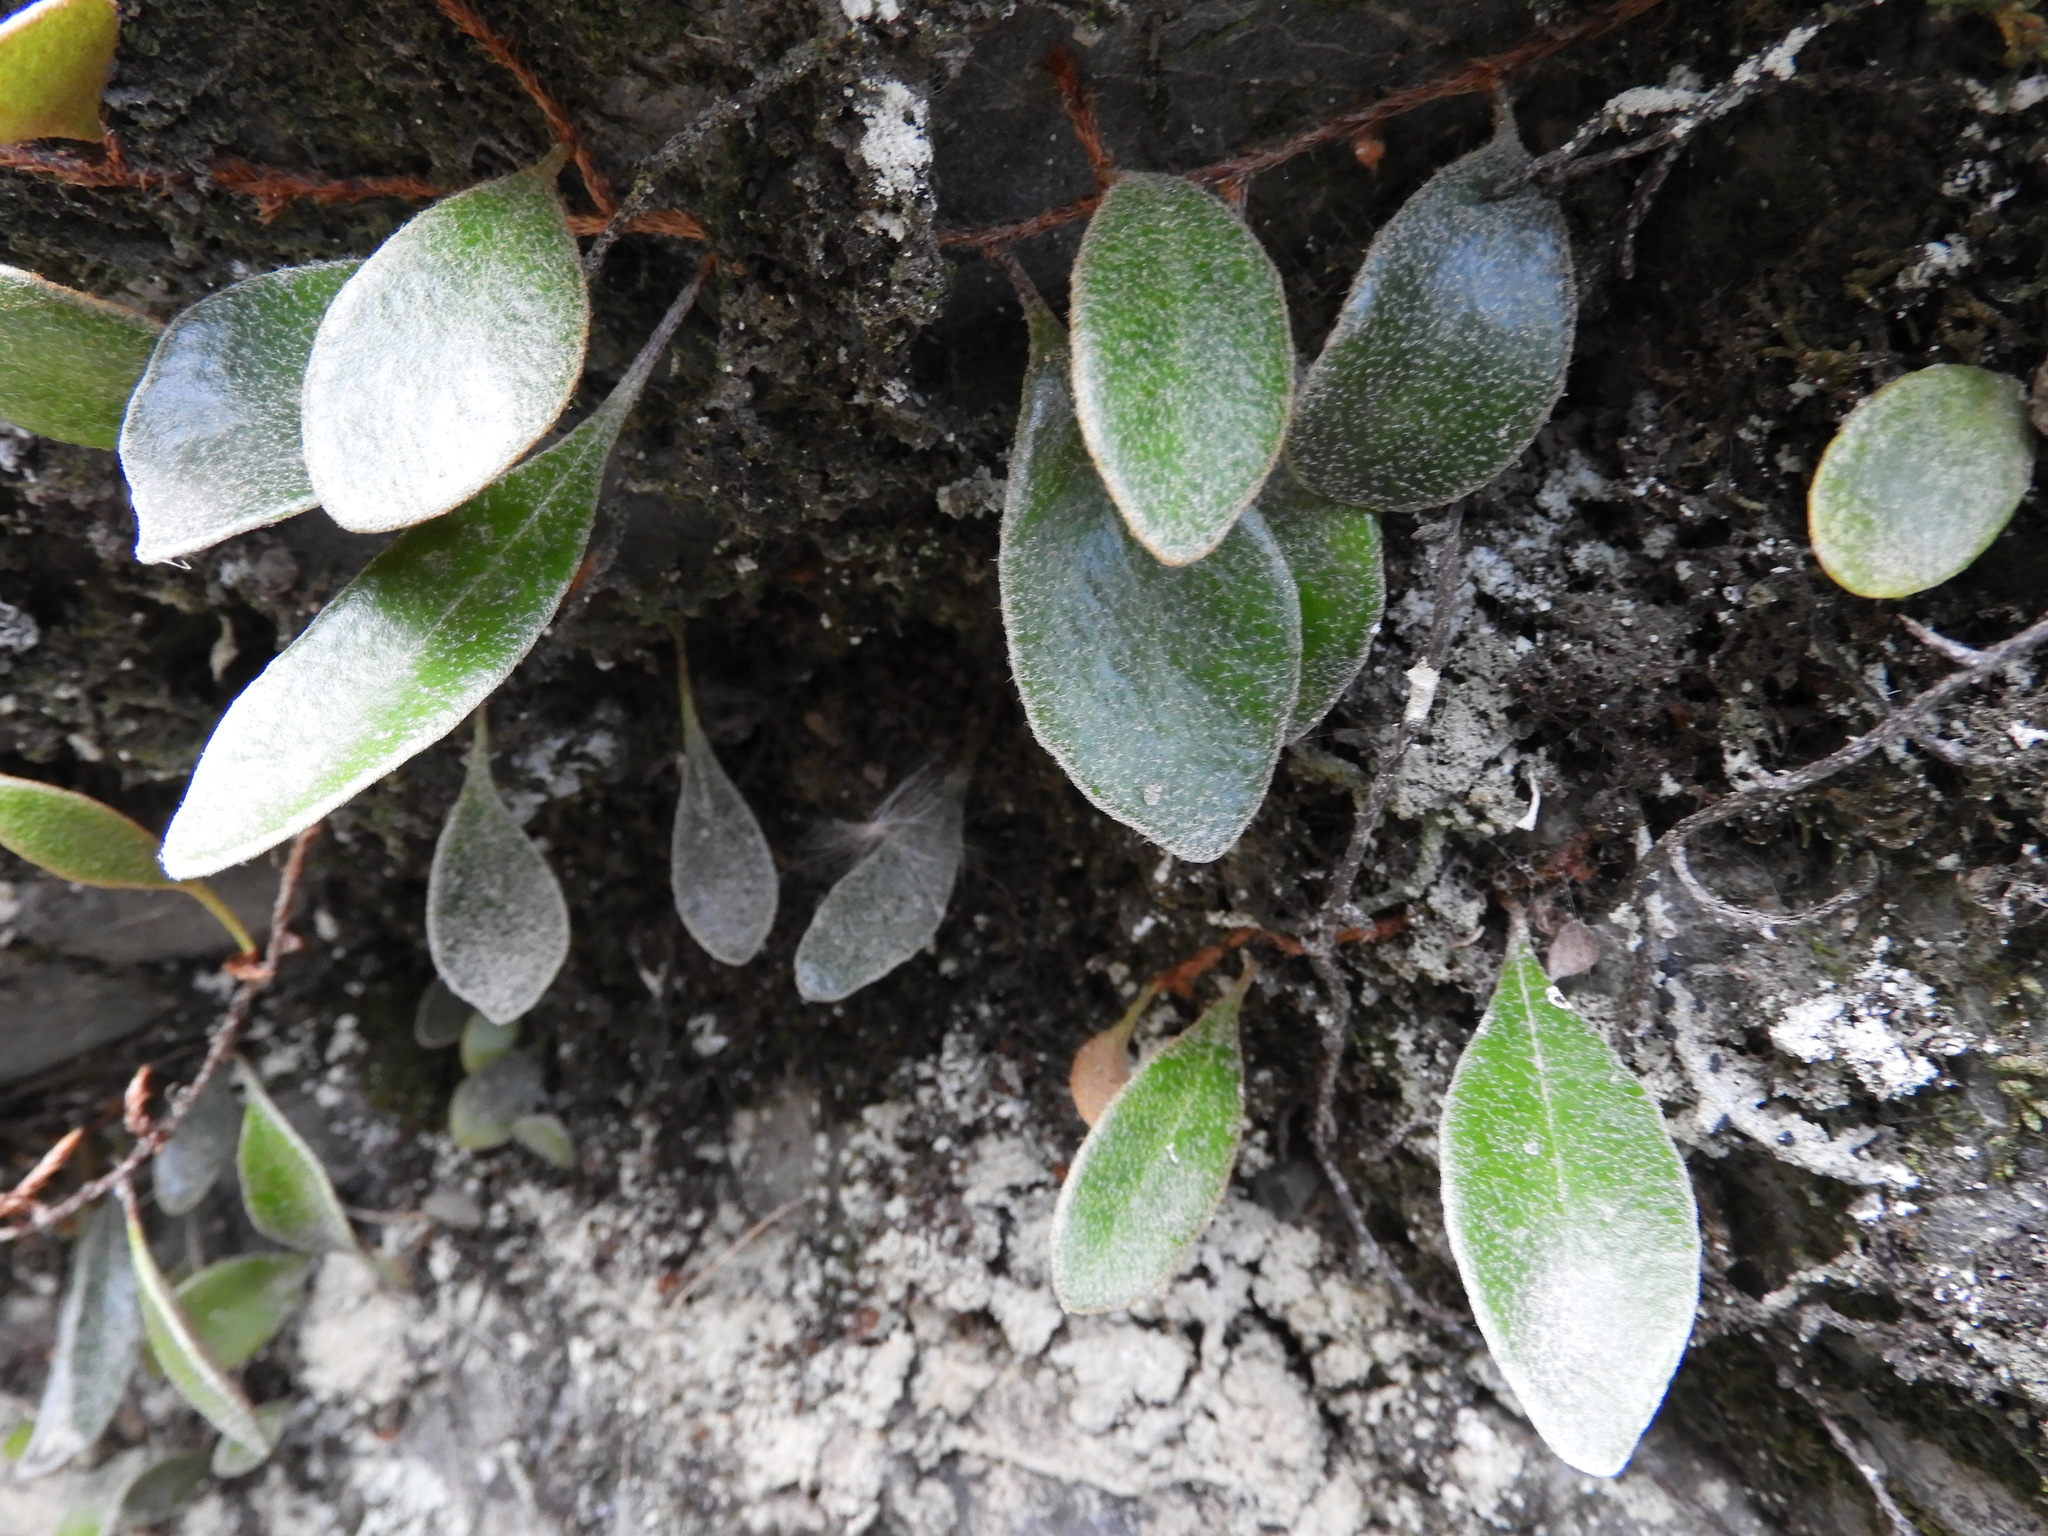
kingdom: Plantae
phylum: Tracheophyta
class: Polypodiopsida
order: Polypodiales
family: Polypodiaceae
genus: Pyrrosia
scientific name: Pyrrosia eleagnifolia
